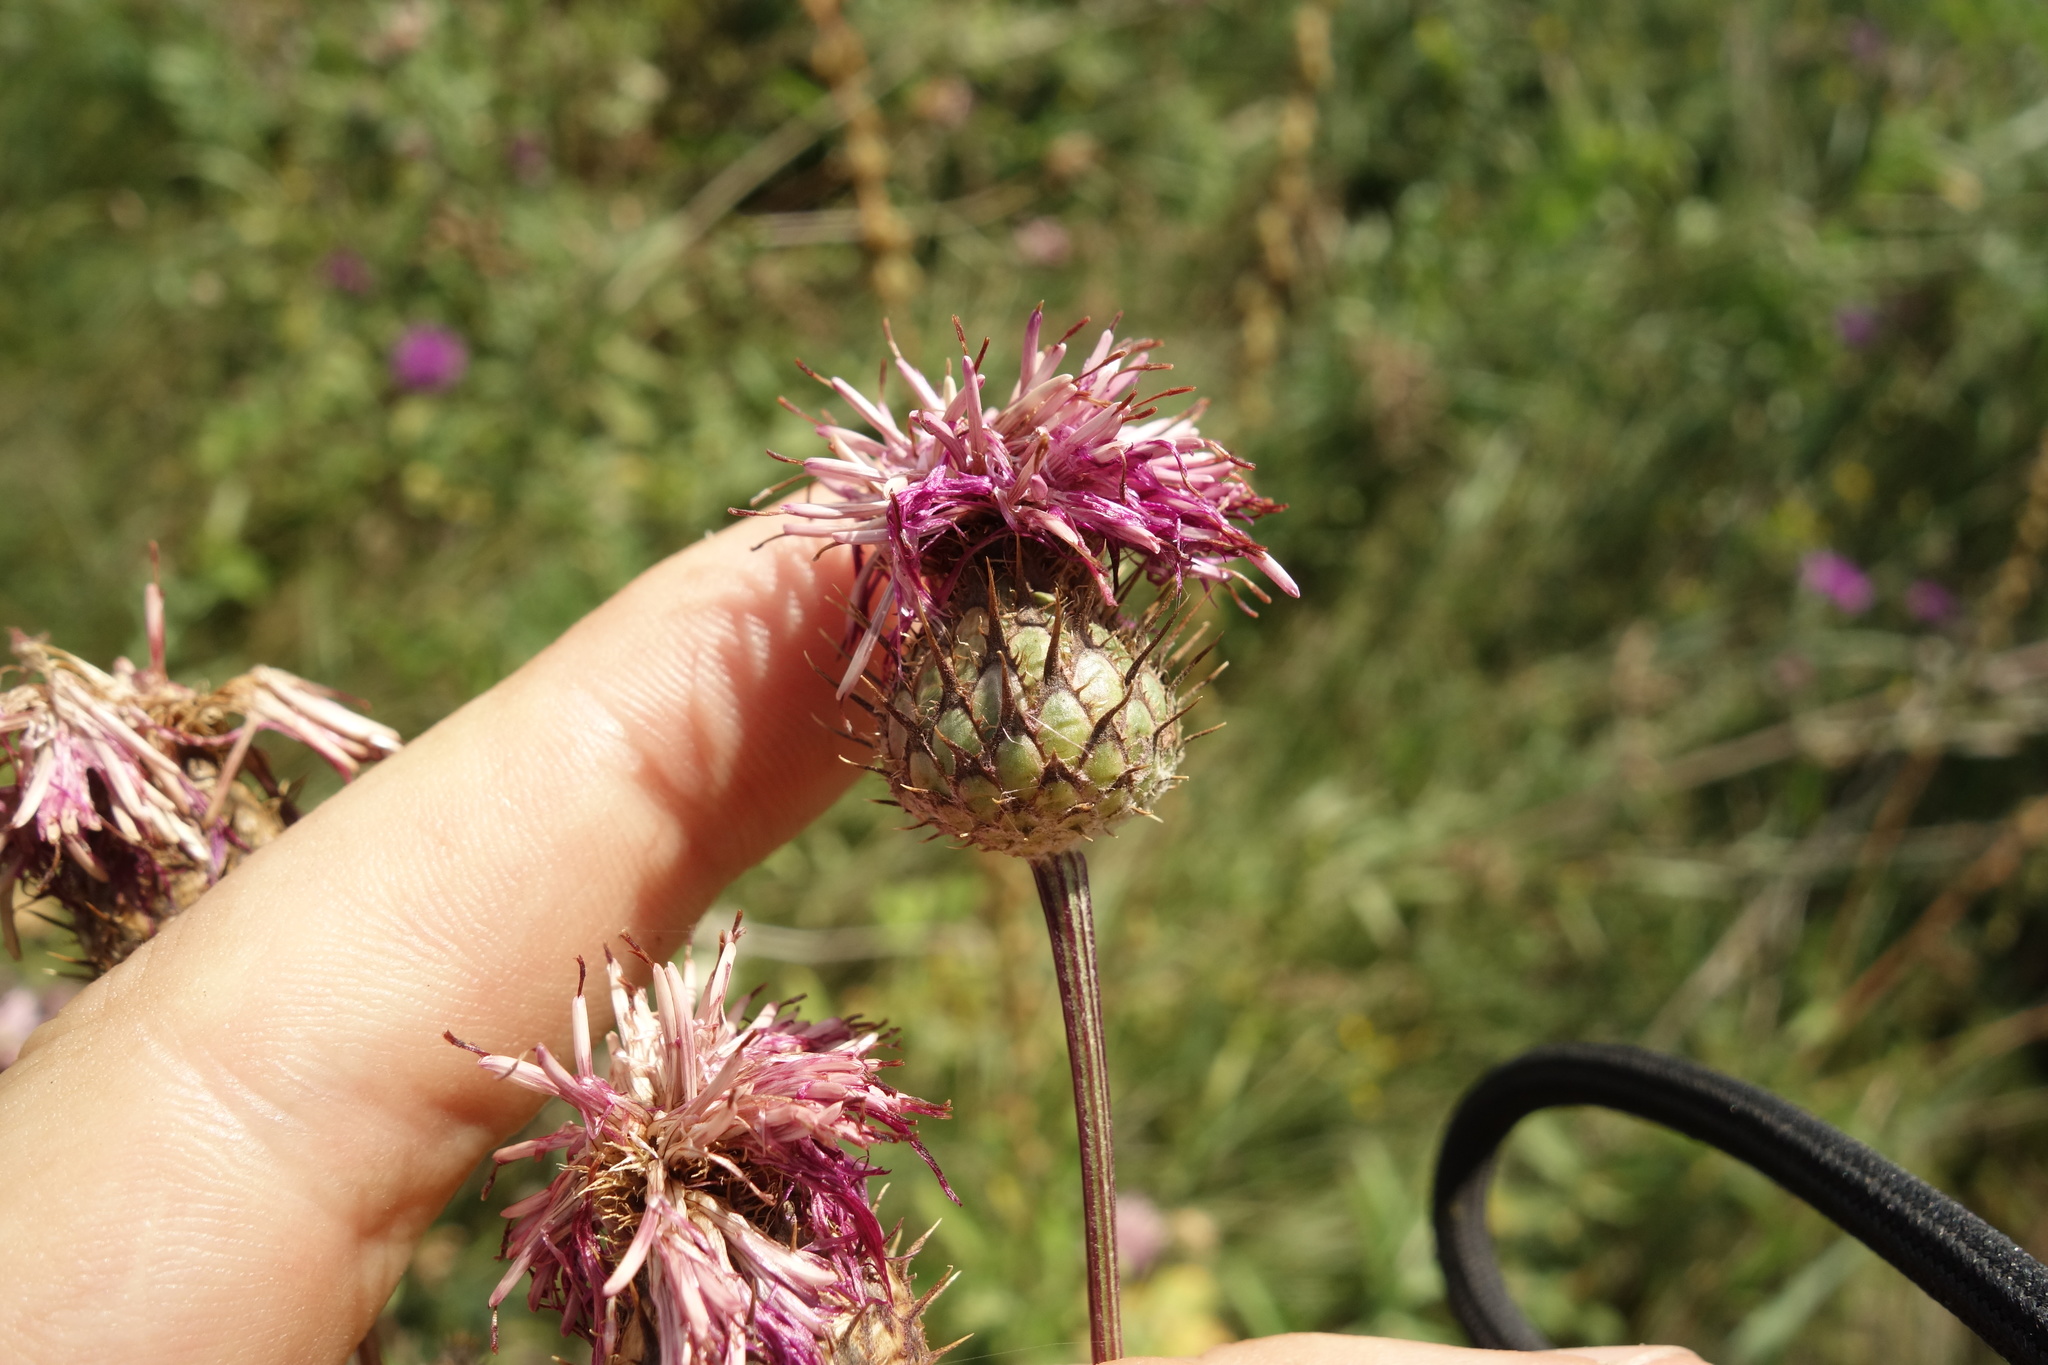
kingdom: Plantae
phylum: Tracheophyta
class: Magnoliopsida
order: Asterales
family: Asteraceae
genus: Centaurea
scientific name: Centaurea scabiosa
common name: Greater knapweed
